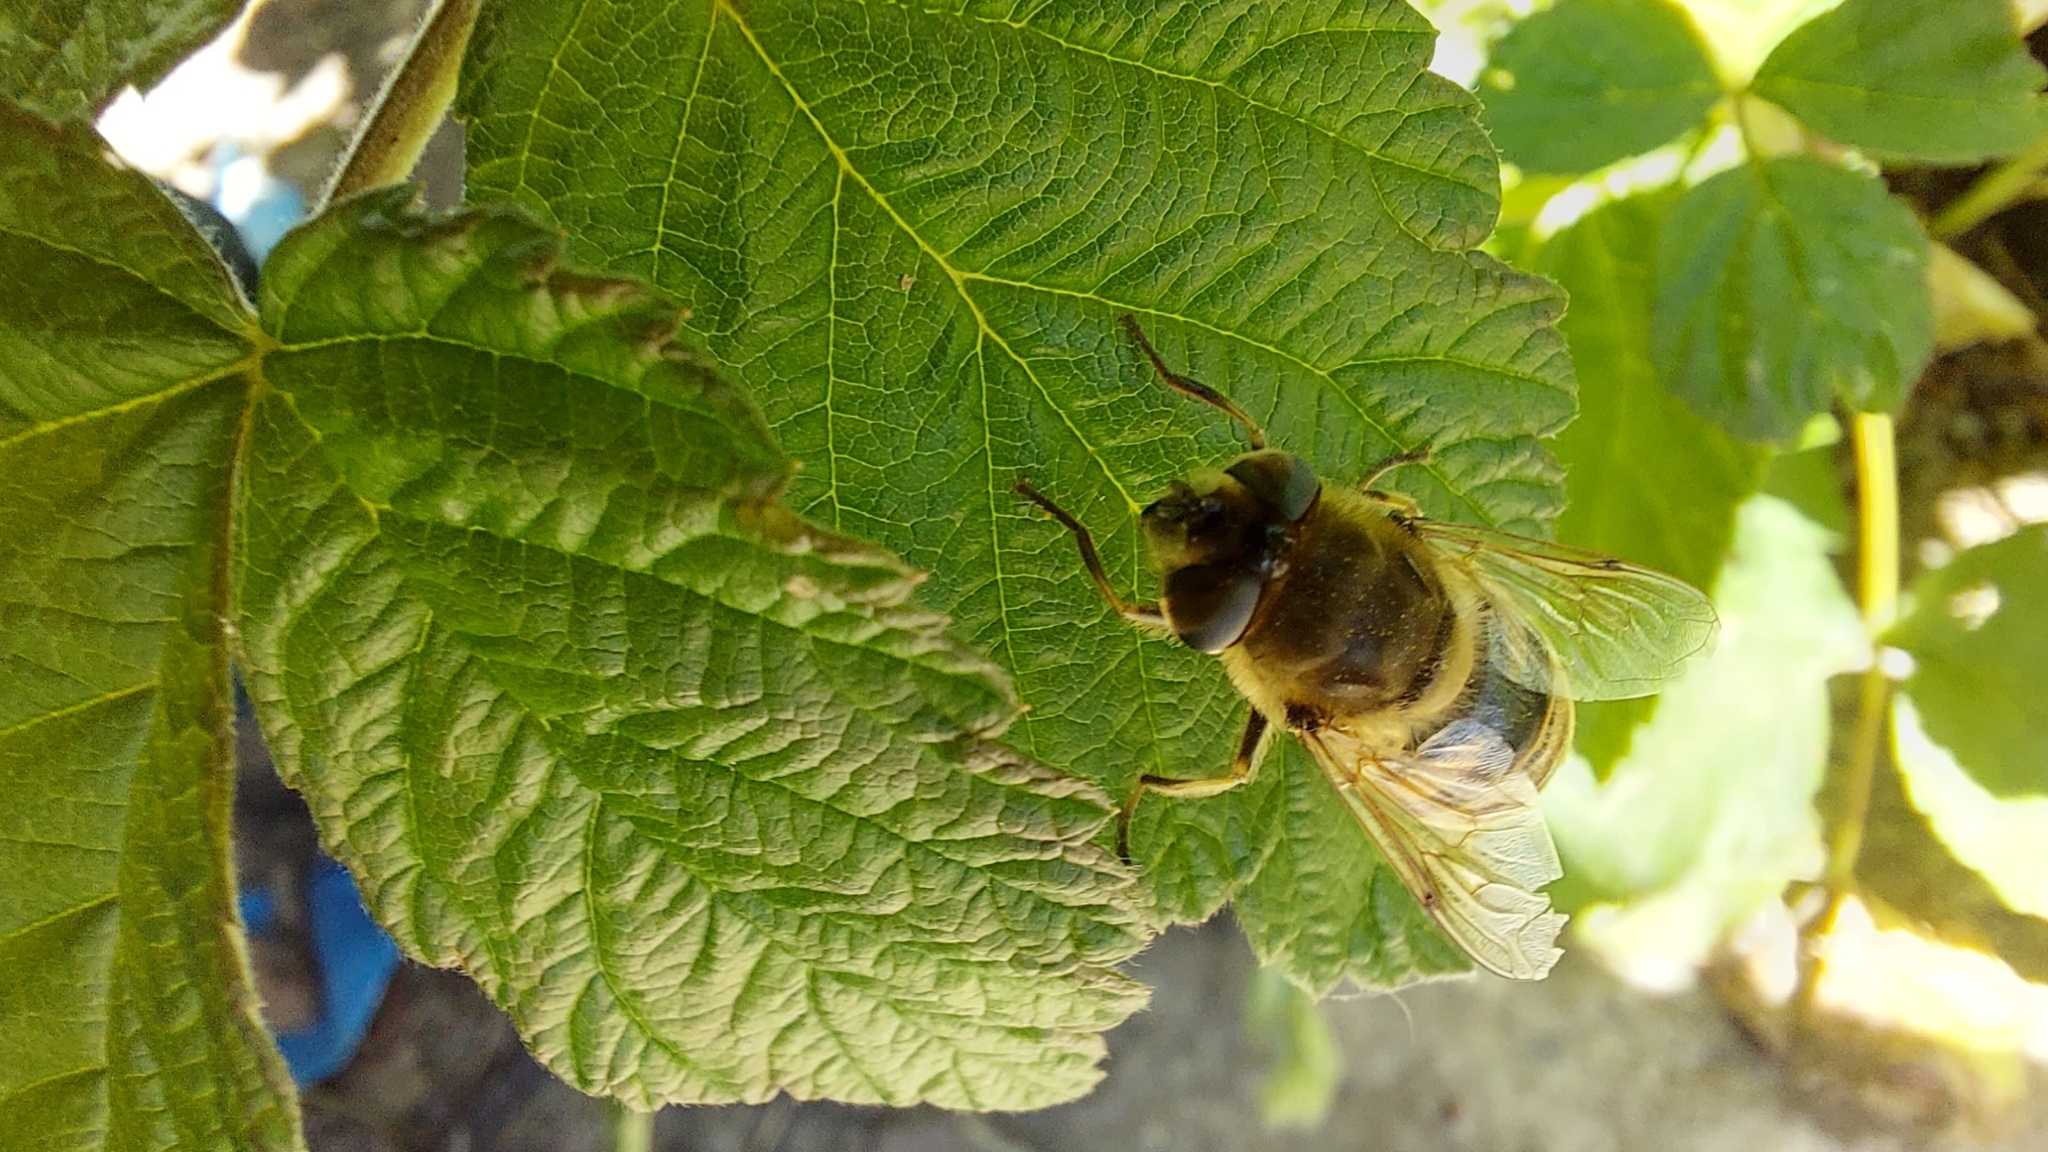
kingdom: Animalia
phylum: Arthropoda
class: Insecta
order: Diptera
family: Syrphidae
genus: Eristalis
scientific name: Eristalis tenax
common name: Drone fly
